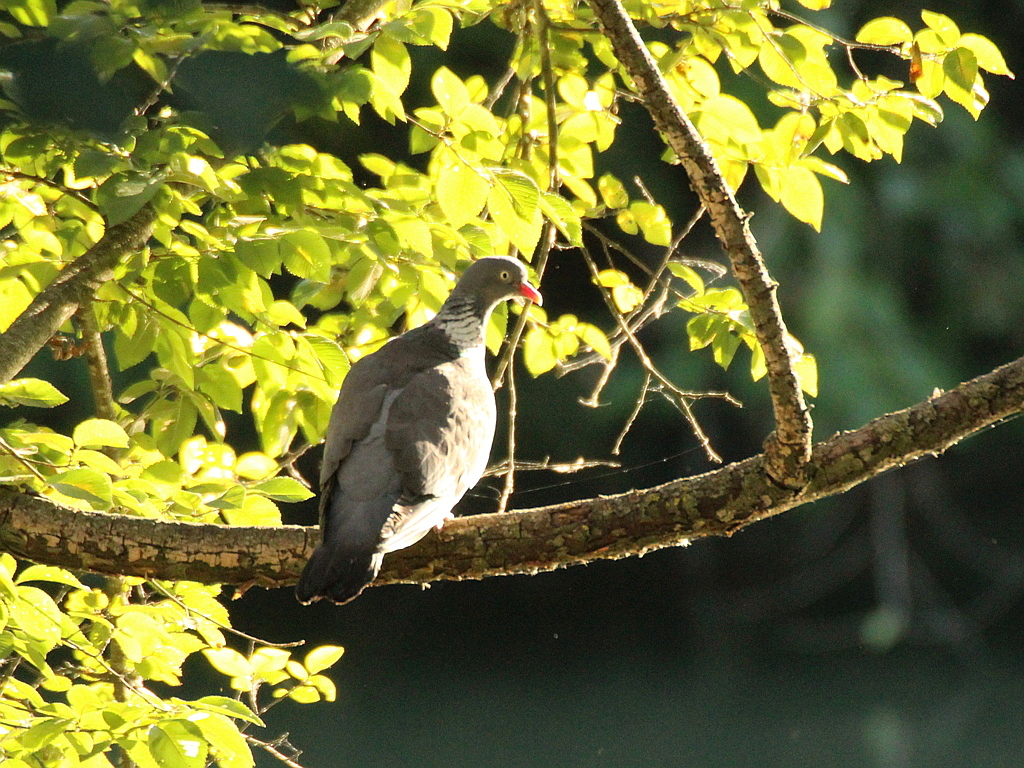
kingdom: Animalia
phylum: Chordata
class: Aves
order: Columbiformes
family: Columbidae
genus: Columba
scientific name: Columba palumbus
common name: Common wood pigeon
